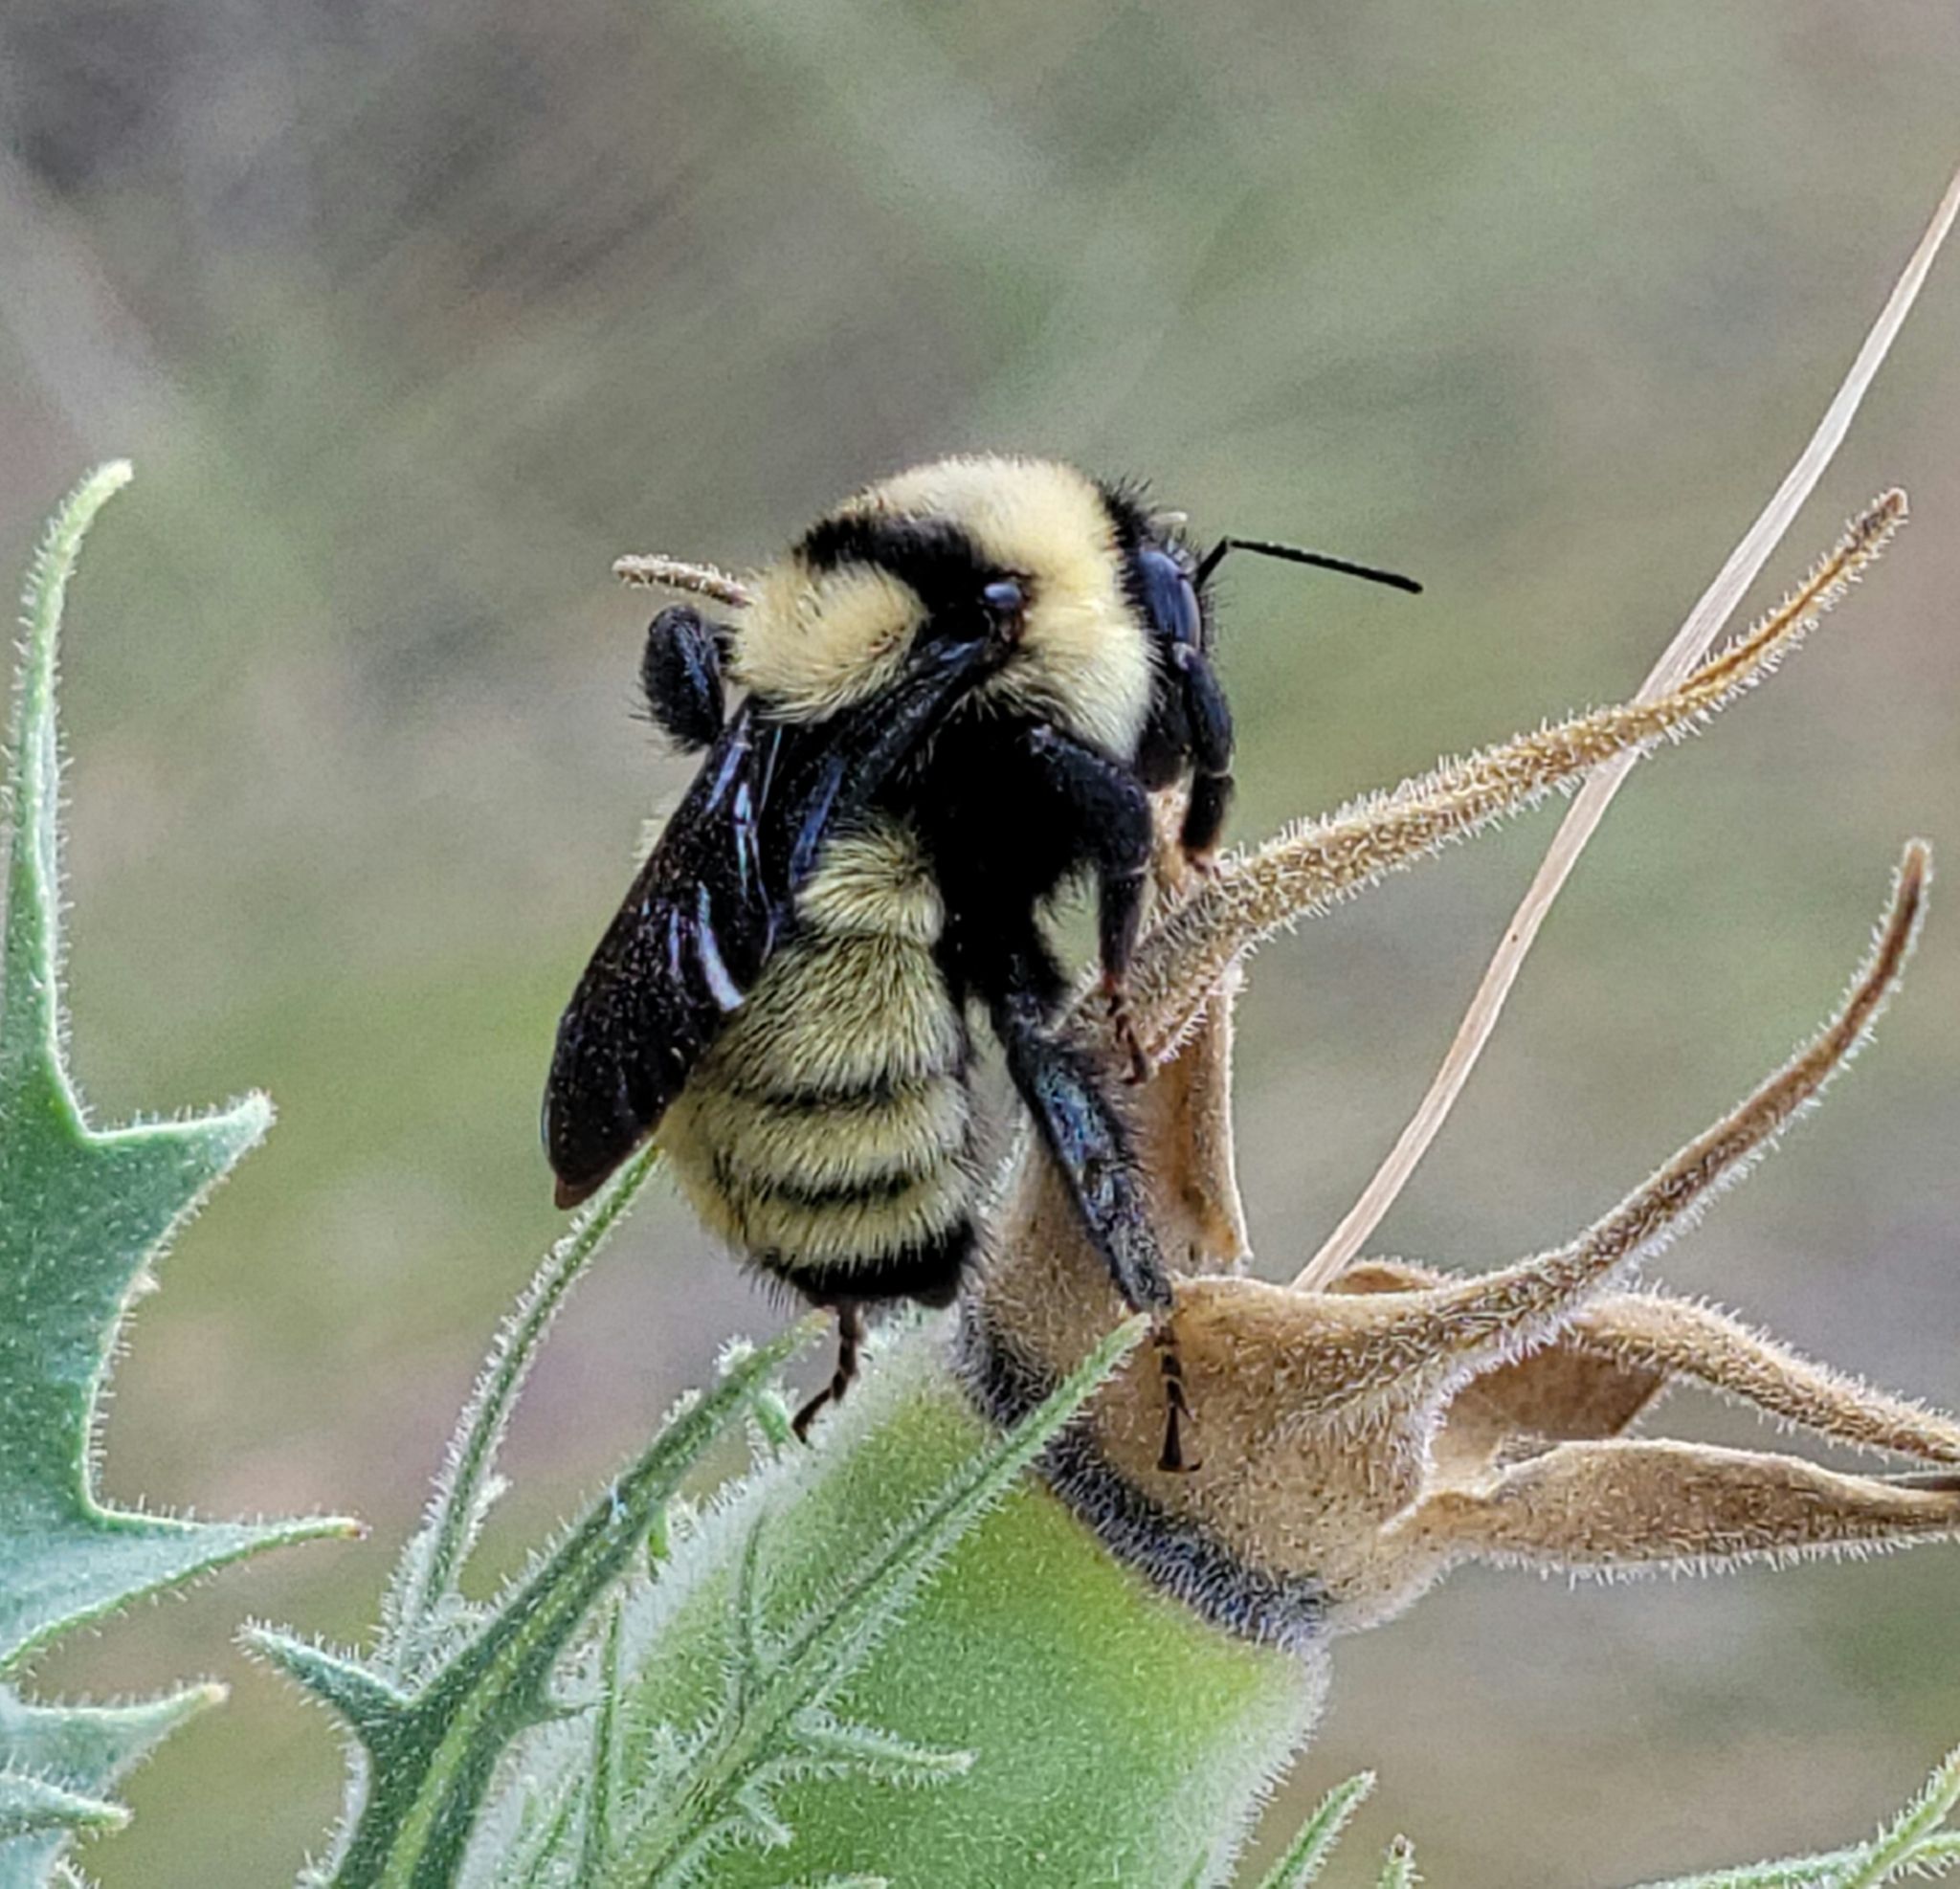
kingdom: Animalia
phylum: Arthropoda
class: Insecta
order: Hymenoptera
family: Apidae
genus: Bombus
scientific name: Bombus fervidus
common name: Yellow bumble bee
